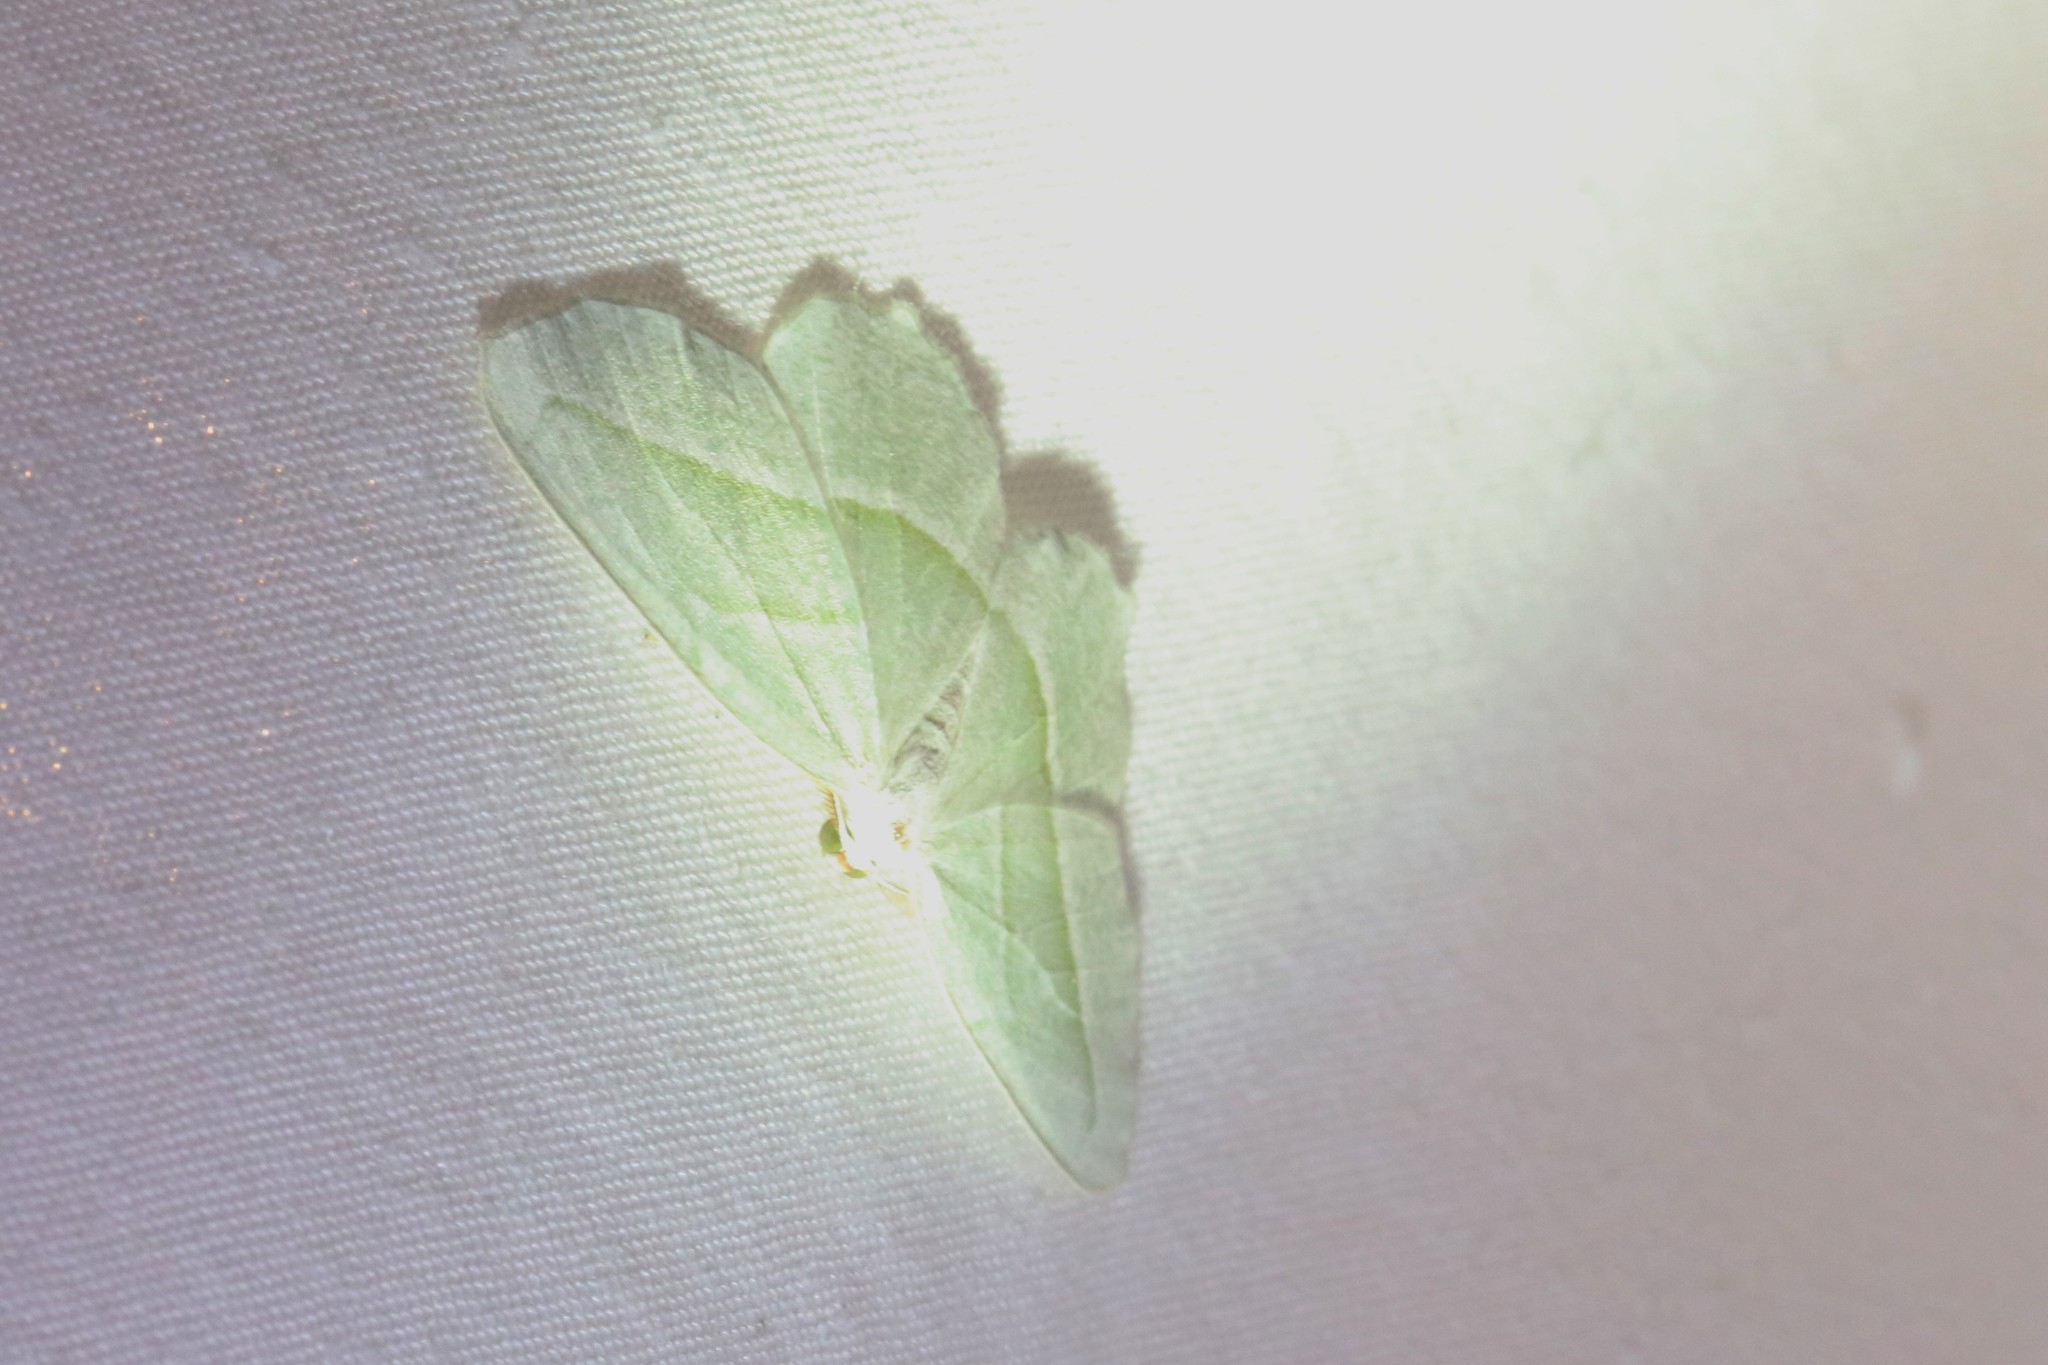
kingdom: Animalia
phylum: Arthropoda
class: Insecta
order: Lepidoptera
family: Geometridae
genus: Campaea
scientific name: Campaea perlata
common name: Fringed looper
